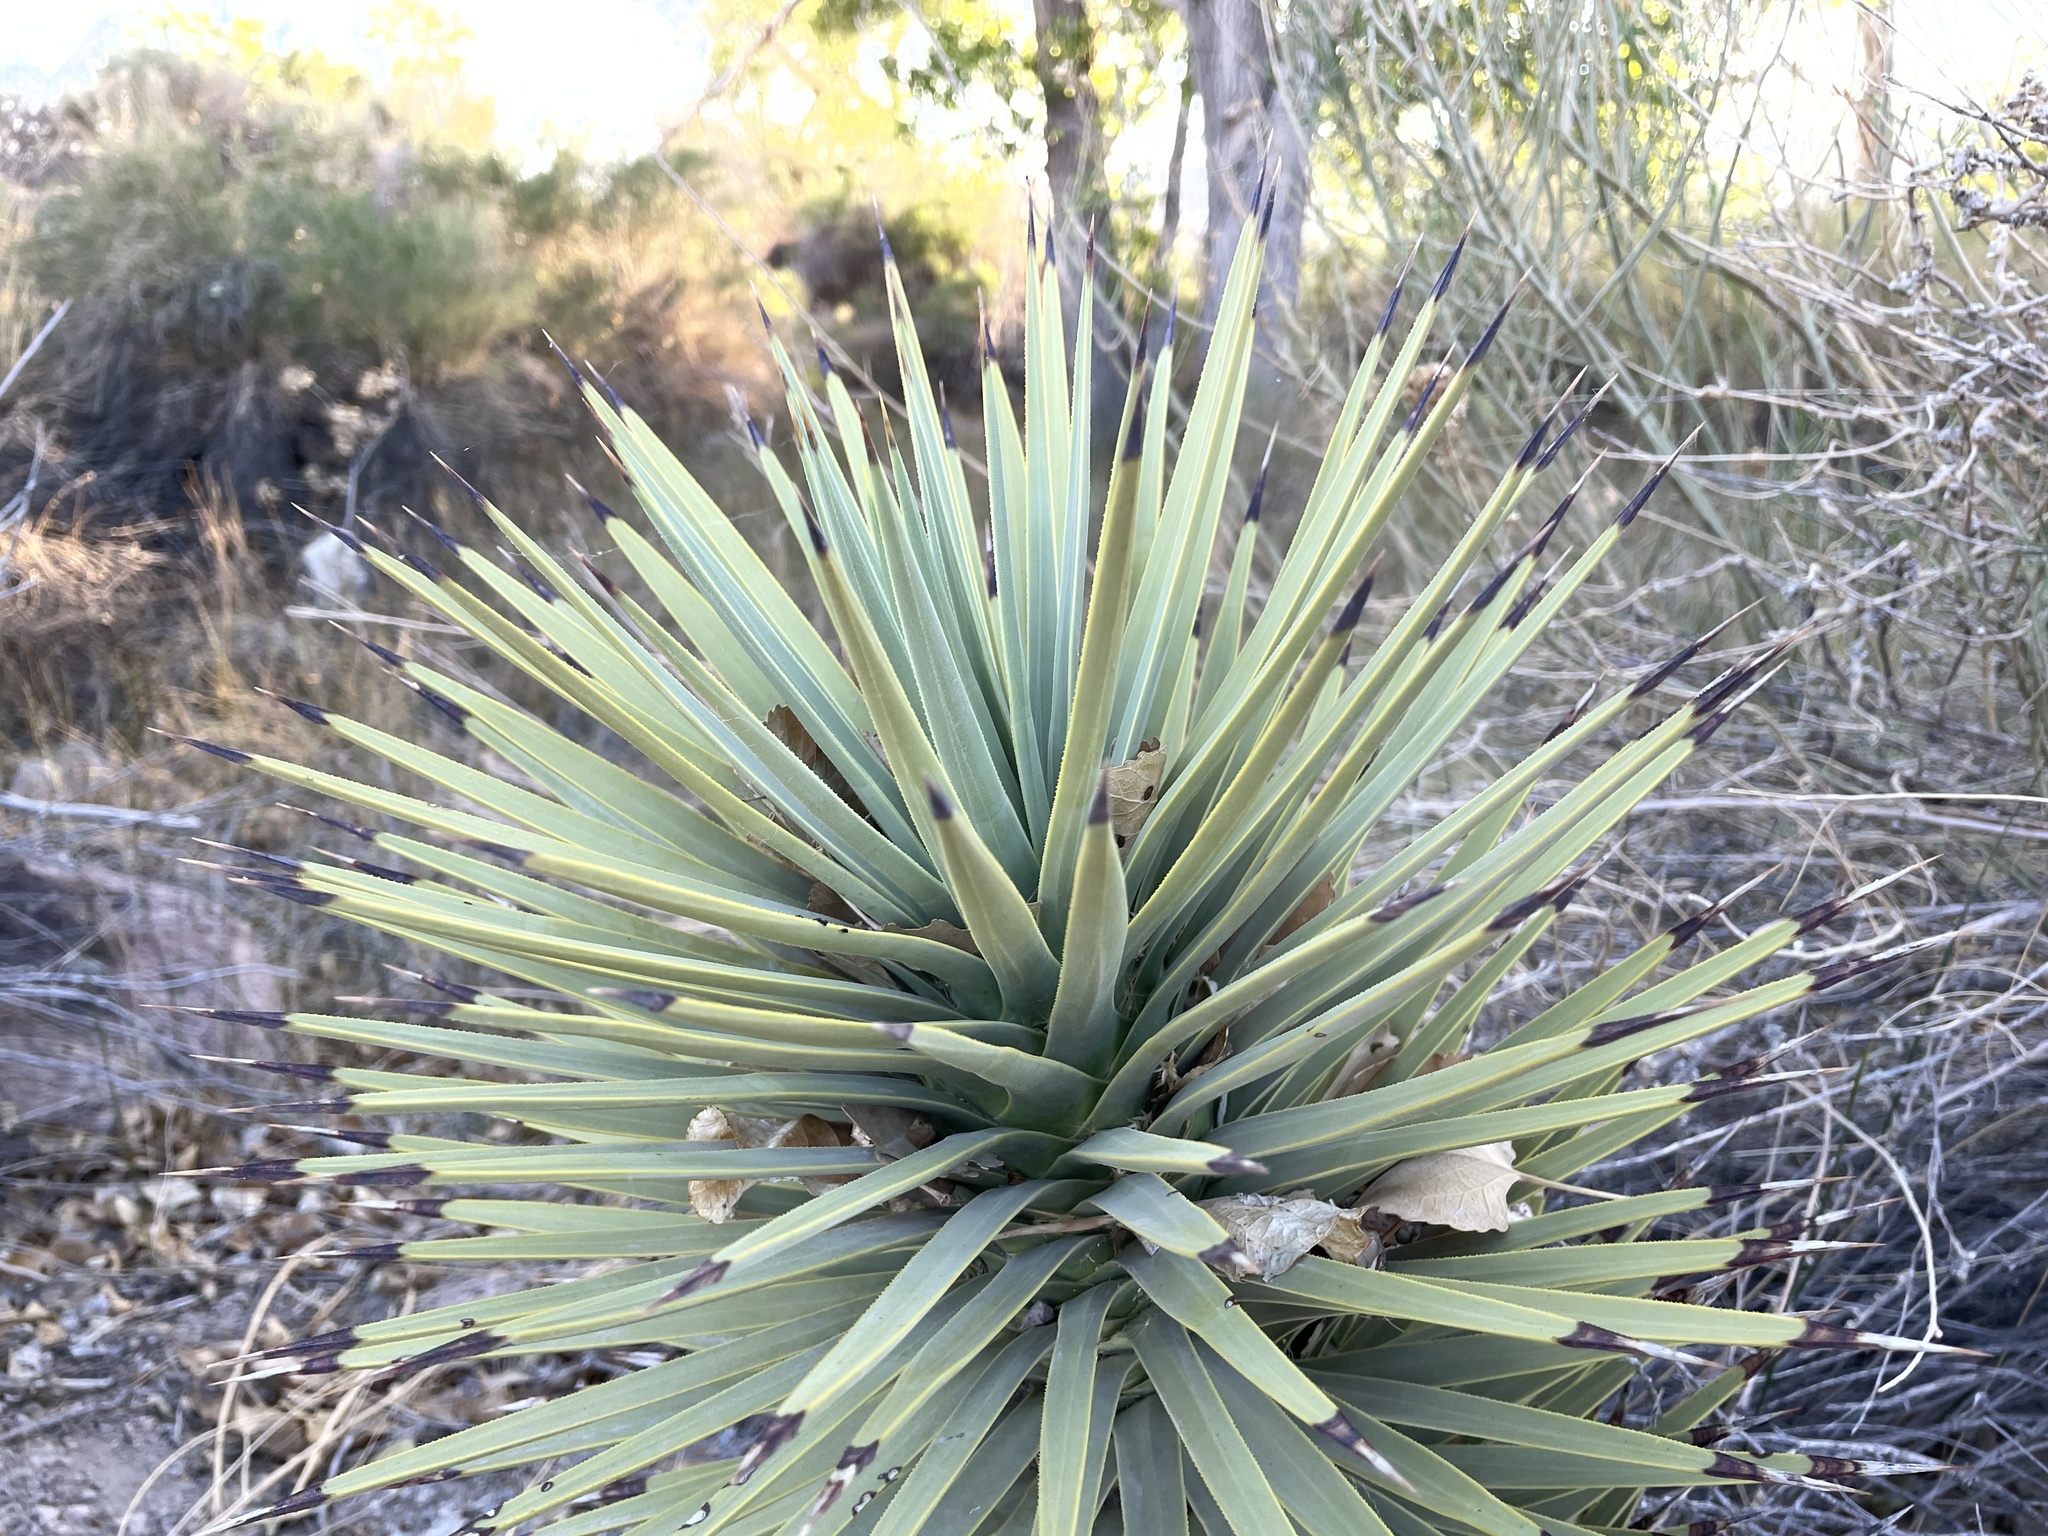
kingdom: Plantae
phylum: Tracheophyta
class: Liliopsida
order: Asparagales
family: Asparagaceae
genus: Yucca
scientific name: Yucca brevifolia
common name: Joshua tree
